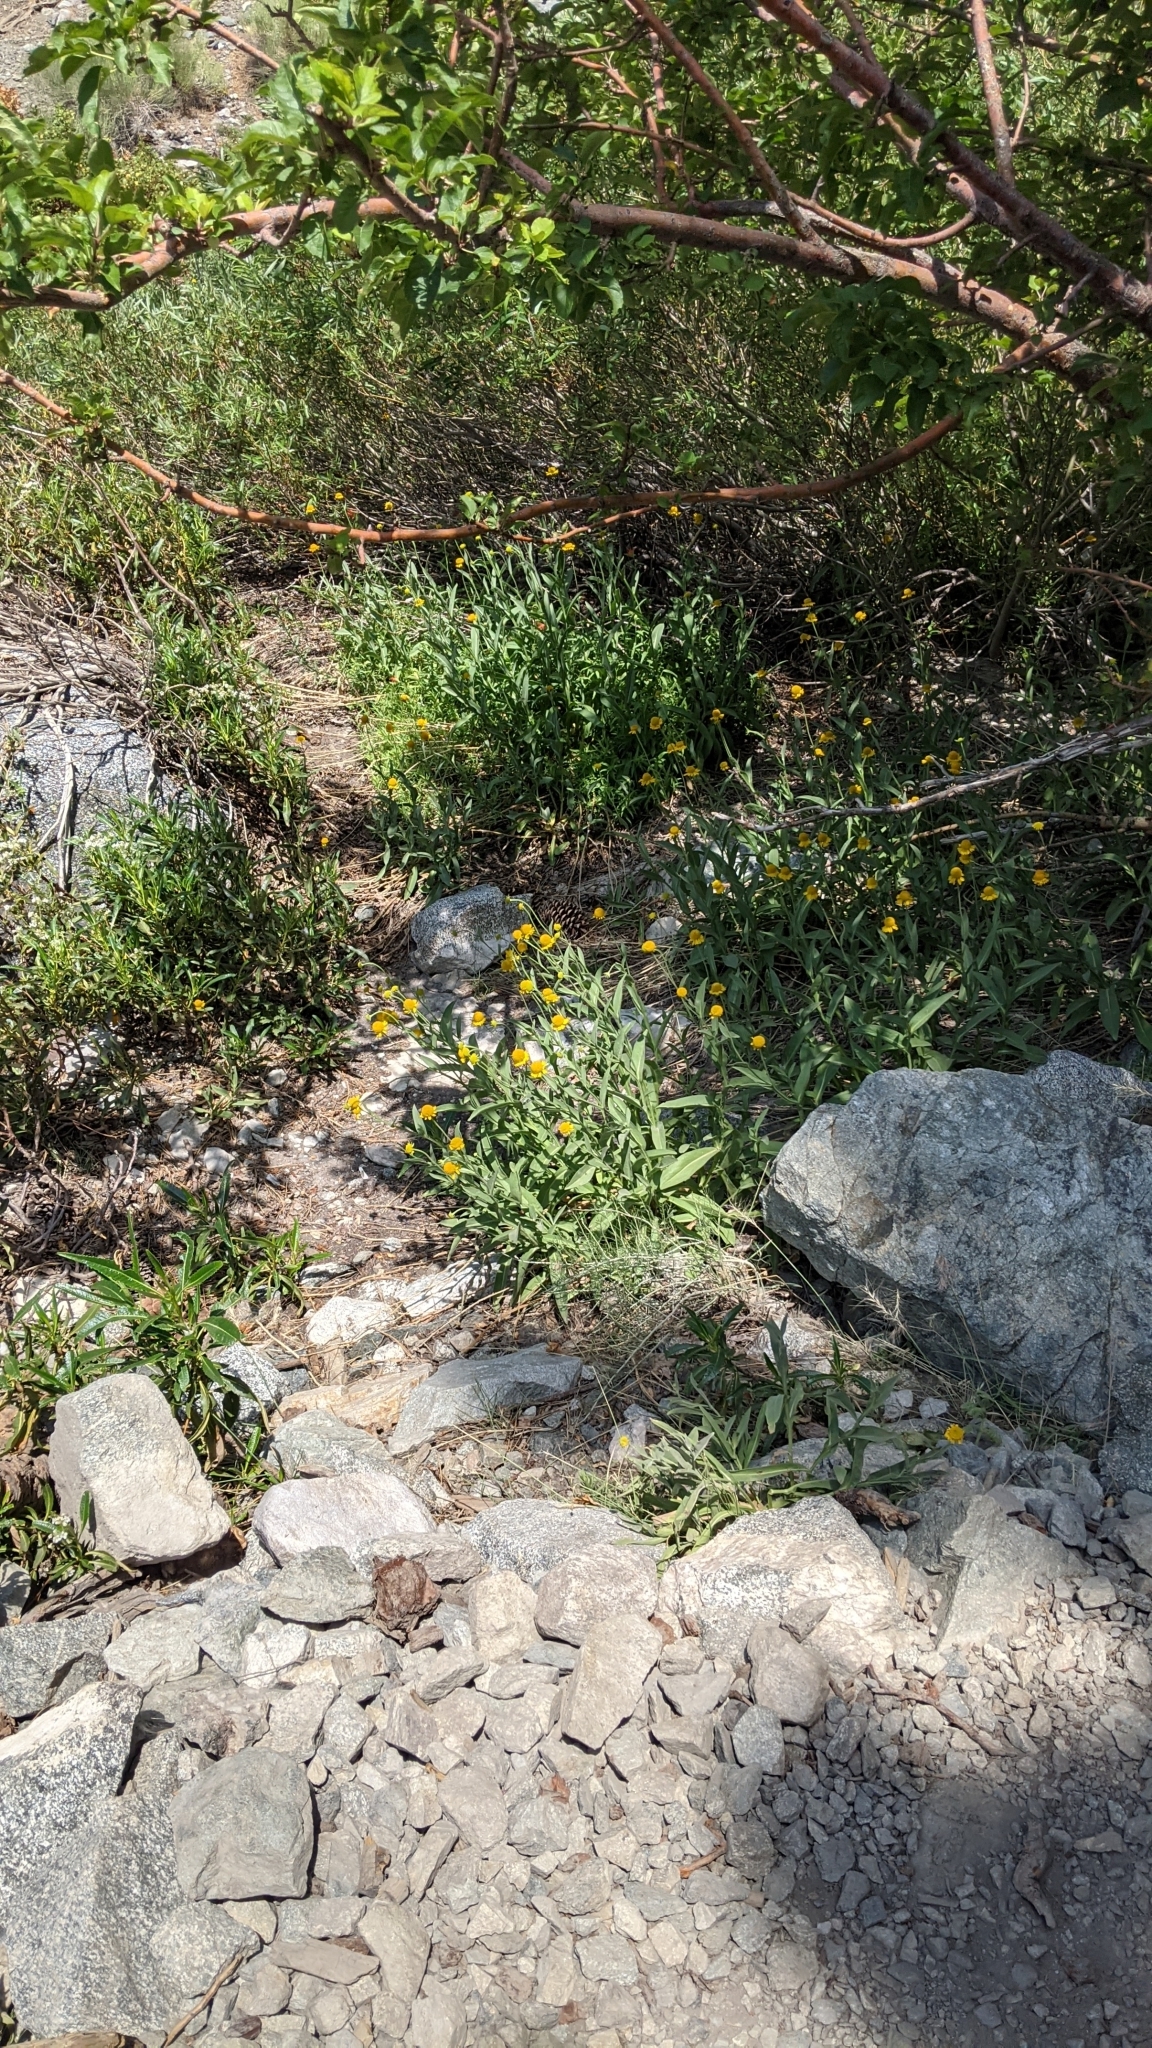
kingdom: Plantae
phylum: Tracheophyta
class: Magnoliopsida
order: Asterales
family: Asteraceae
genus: Helenium
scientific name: Helenium bigelovii
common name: Bigelow's sneezeweed
